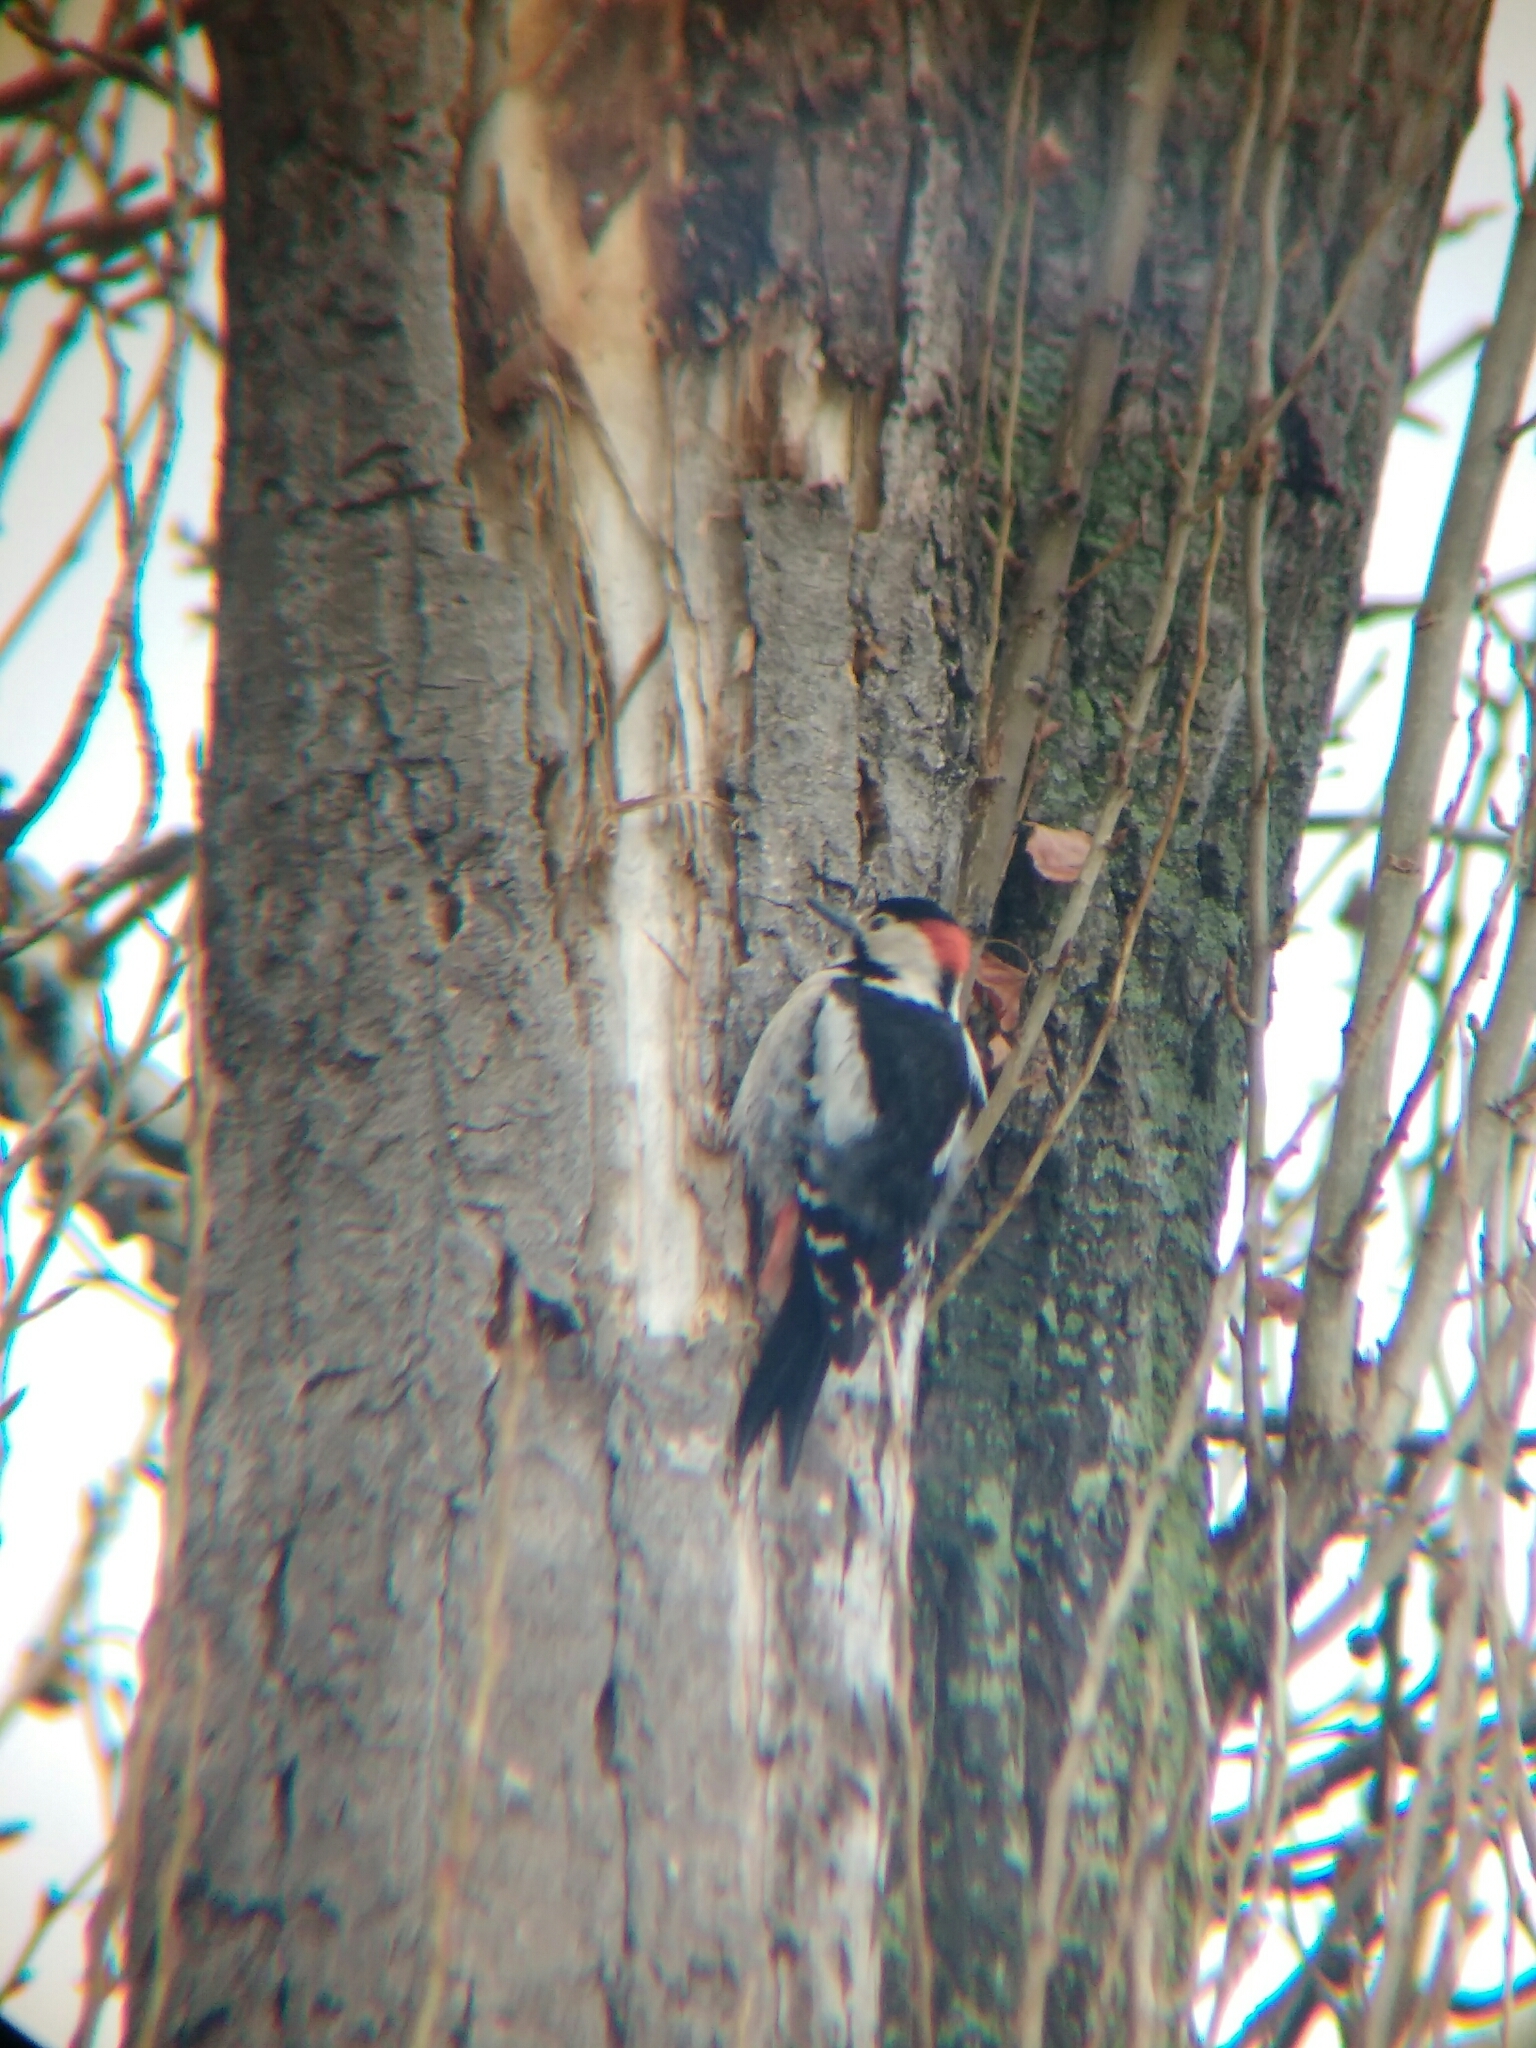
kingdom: Animalia
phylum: Chordata
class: Aves
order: Piciformes
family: Picidae
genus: Dendrocopos
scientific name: Dendrocopos syriacus
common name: Syrian woodpecker
